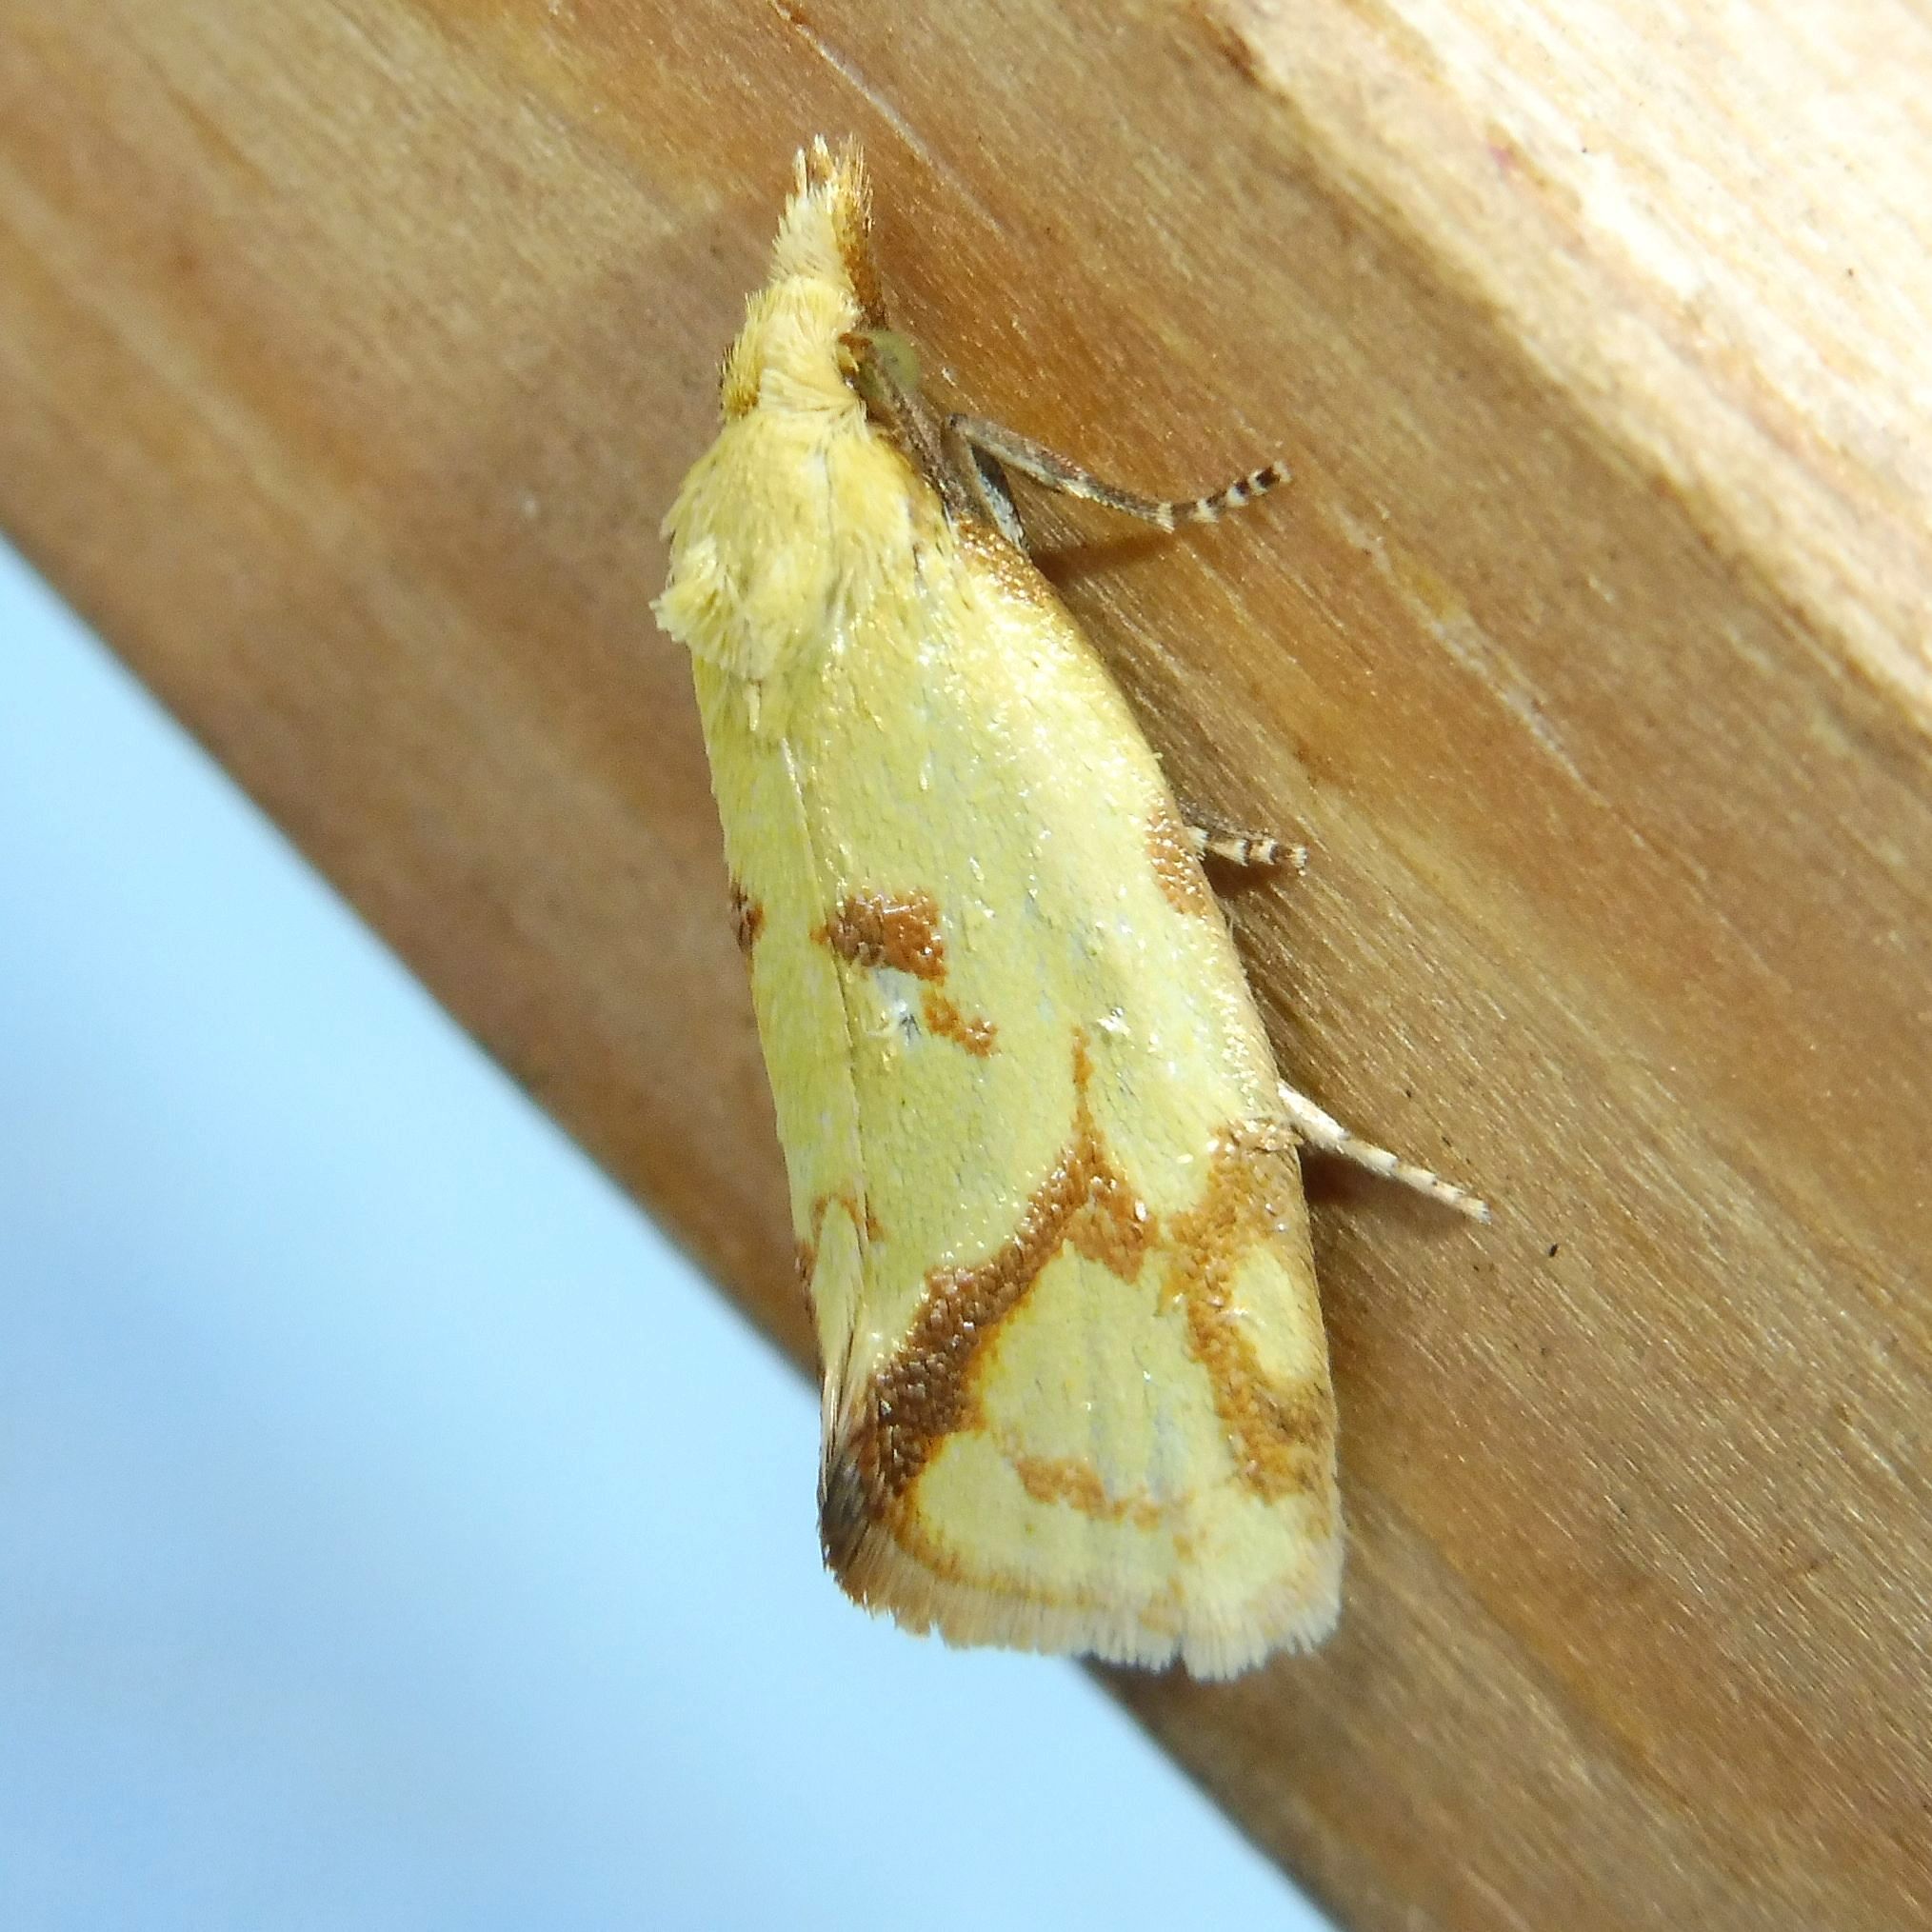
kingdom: Animalia
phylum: Arthropoda
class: Insecta
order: Lepidoptera
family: Tortricidae
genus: Agapeta
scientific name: Agapeta hamana
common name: Common yellow conch
